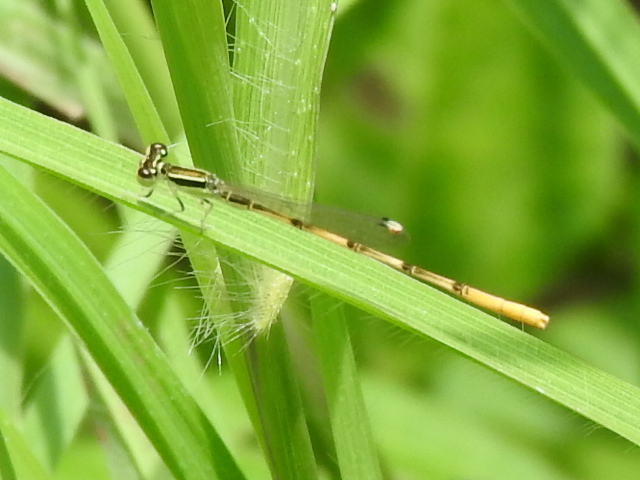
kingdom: Animalia
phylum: Arthropoda
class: Insecta
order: Odonata
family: Coenagrionidae
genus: Ischnura
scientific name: Ischnura hastata
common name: Citrine forktail
